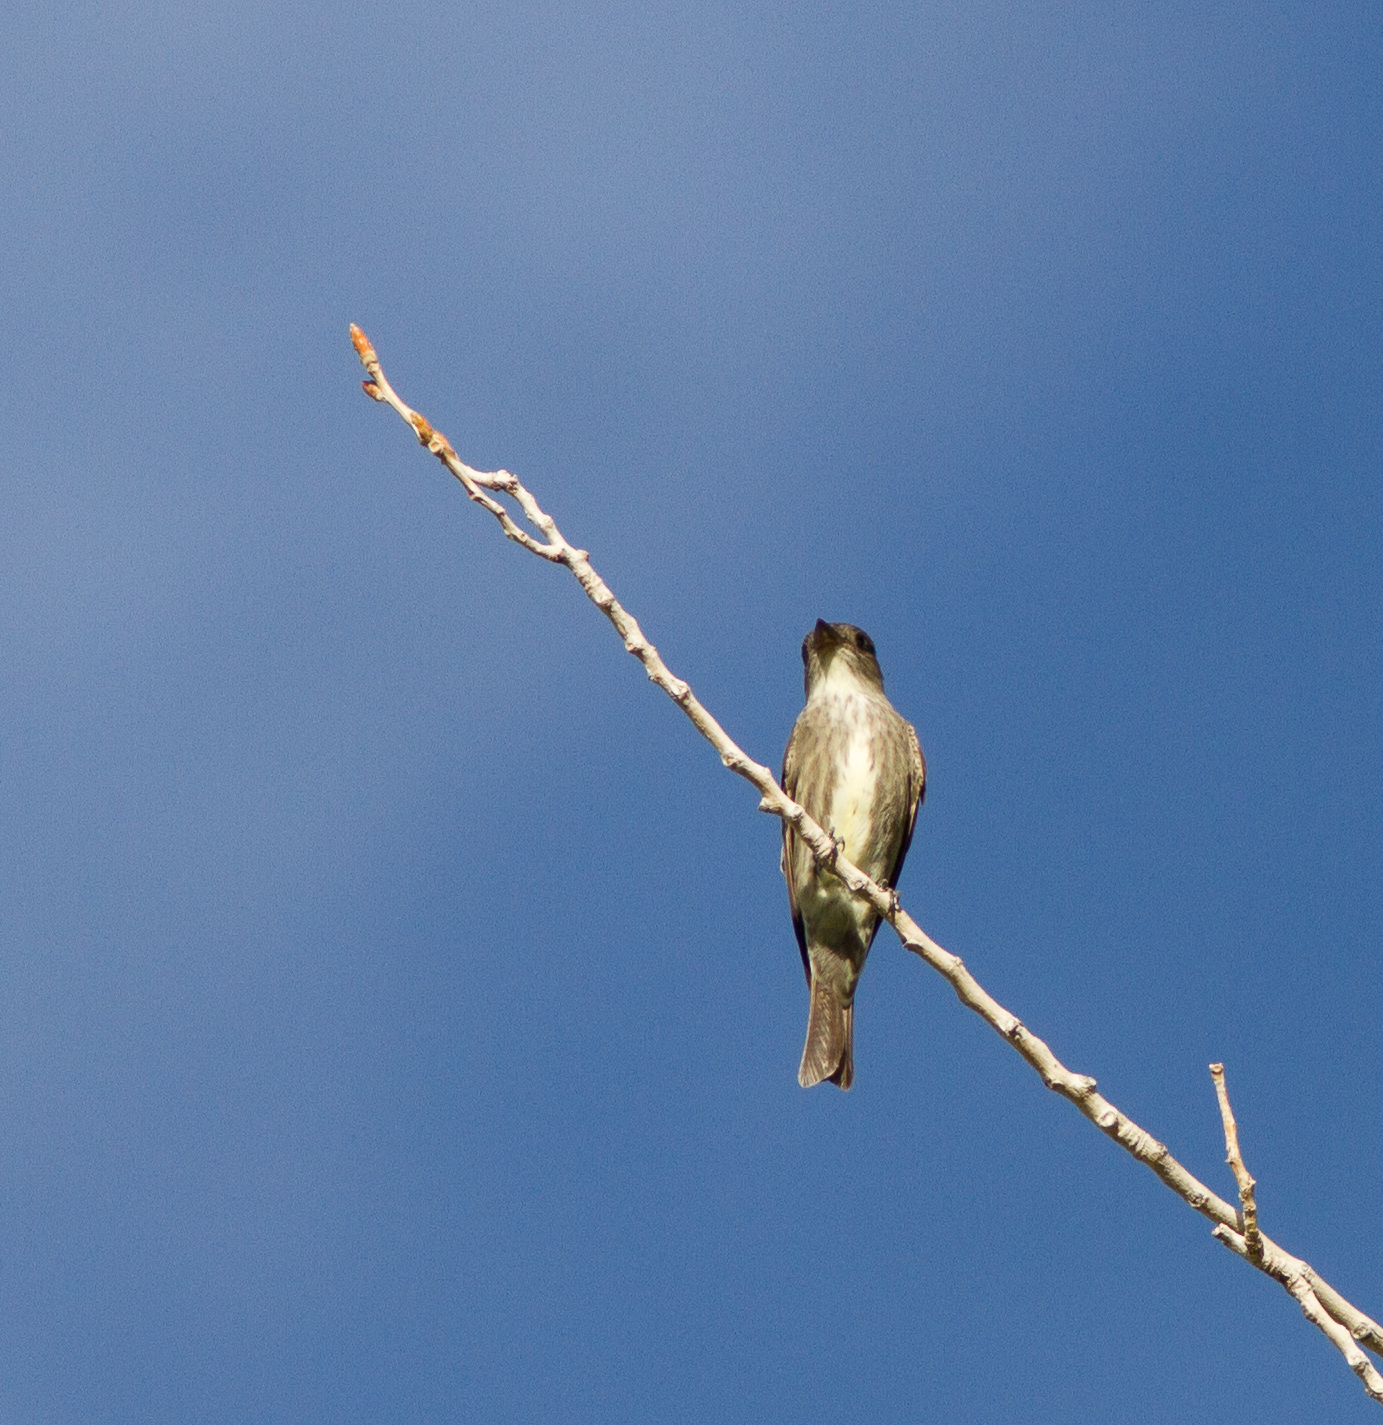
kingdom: Animalia
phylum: Chordata
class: Aves
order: Passeriformes
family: Tyrannidae
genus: Contopus
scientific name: Contopus cooperi
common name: Olive-sided flycatcher
